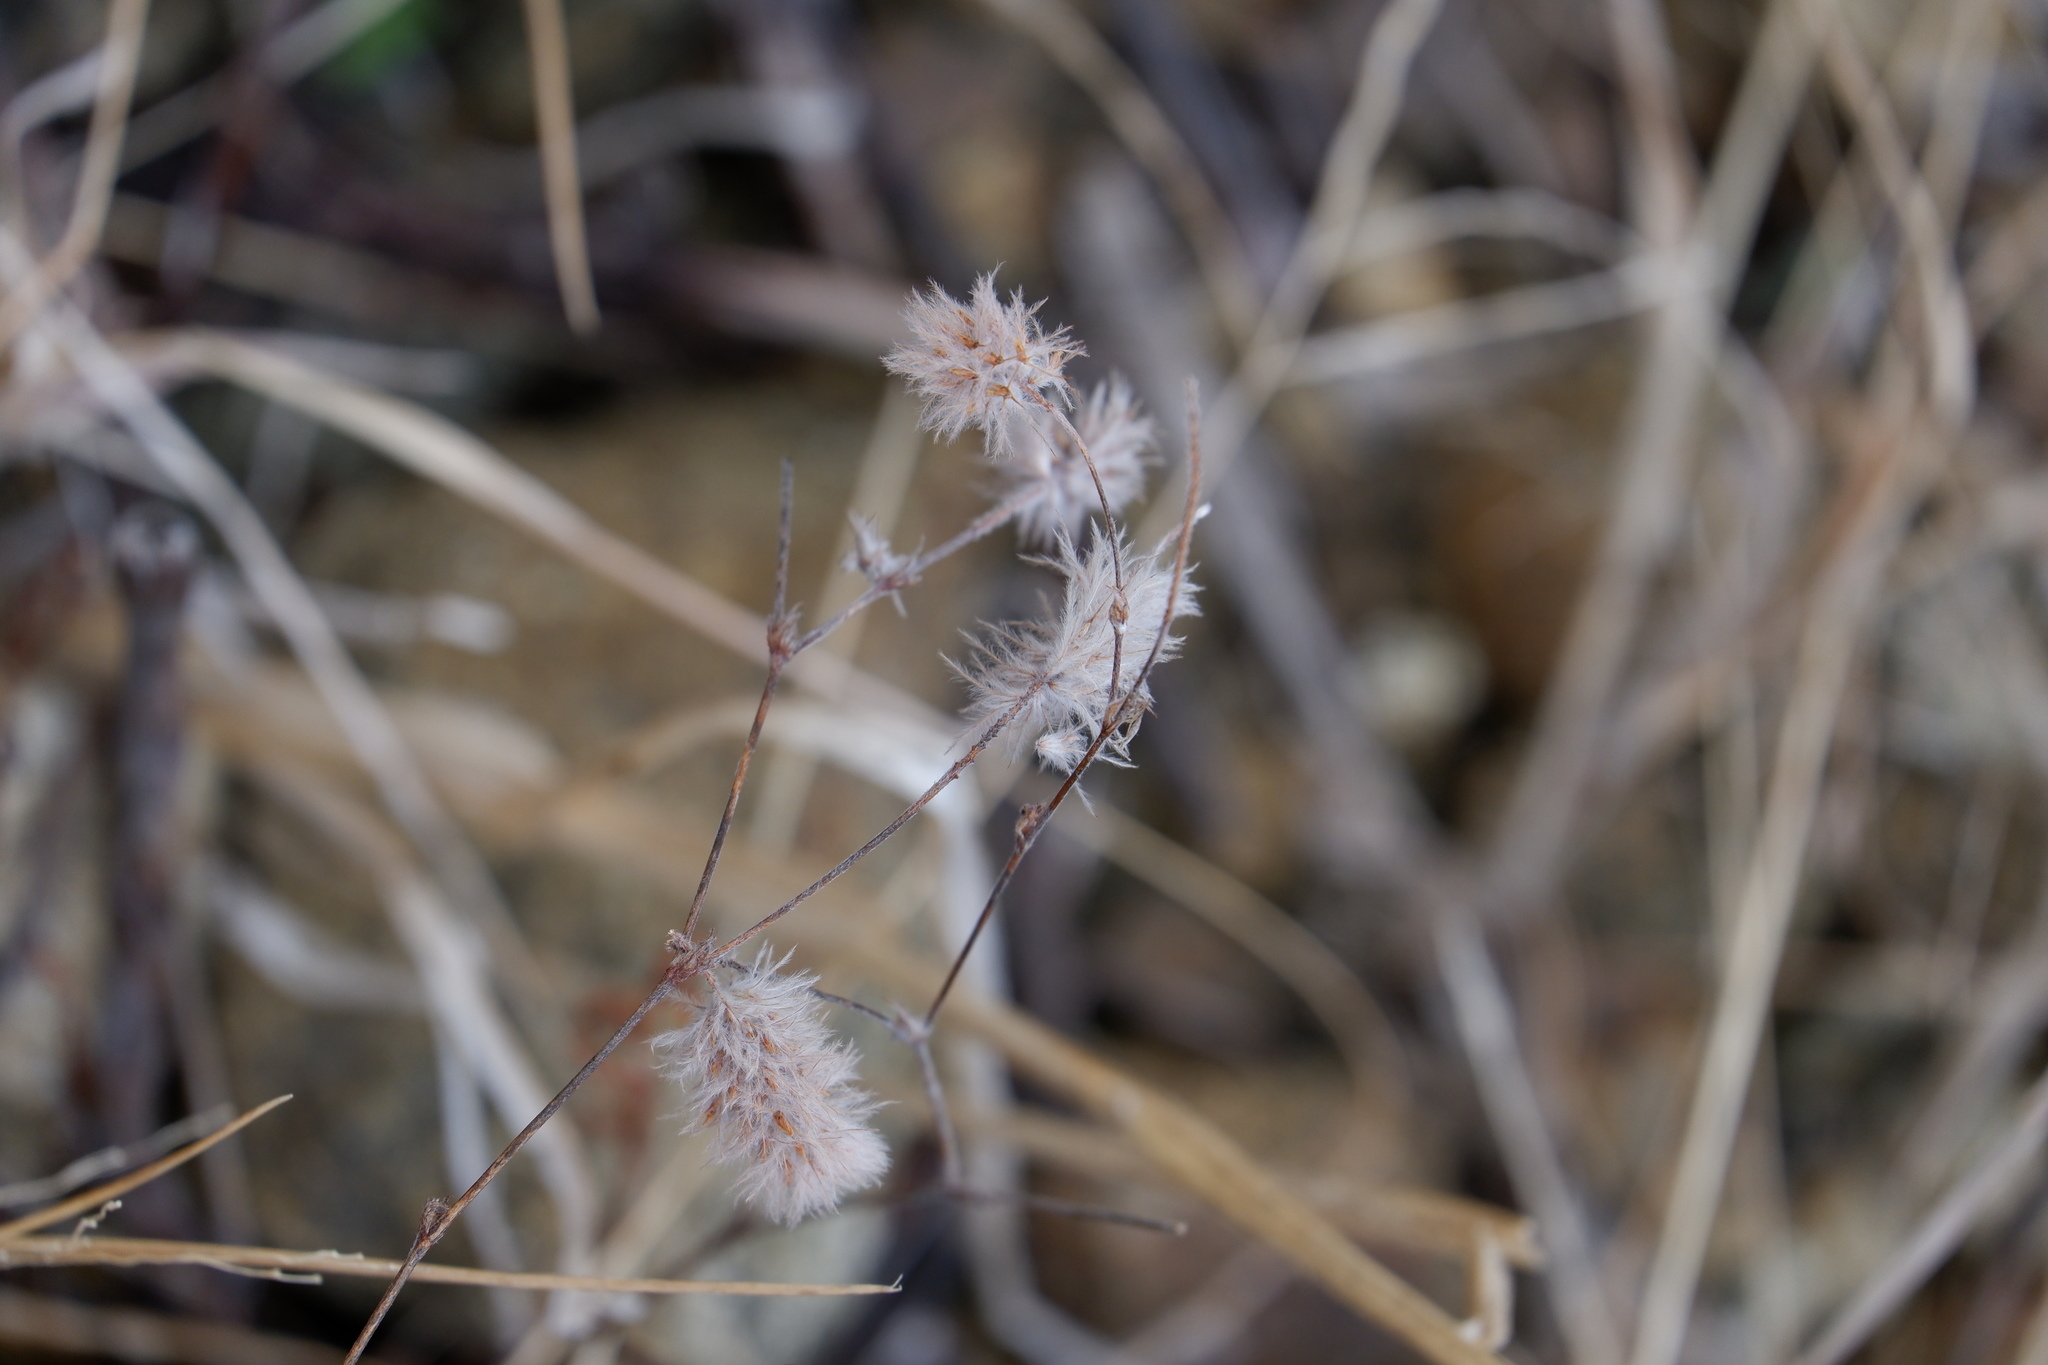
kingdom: Plantae
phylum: Tracheophyta
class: Magnoliopsida
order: Fabales
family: Fabaceae
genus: Trifolium
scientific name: Trifolium arvense
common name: Hare's-foot clover
